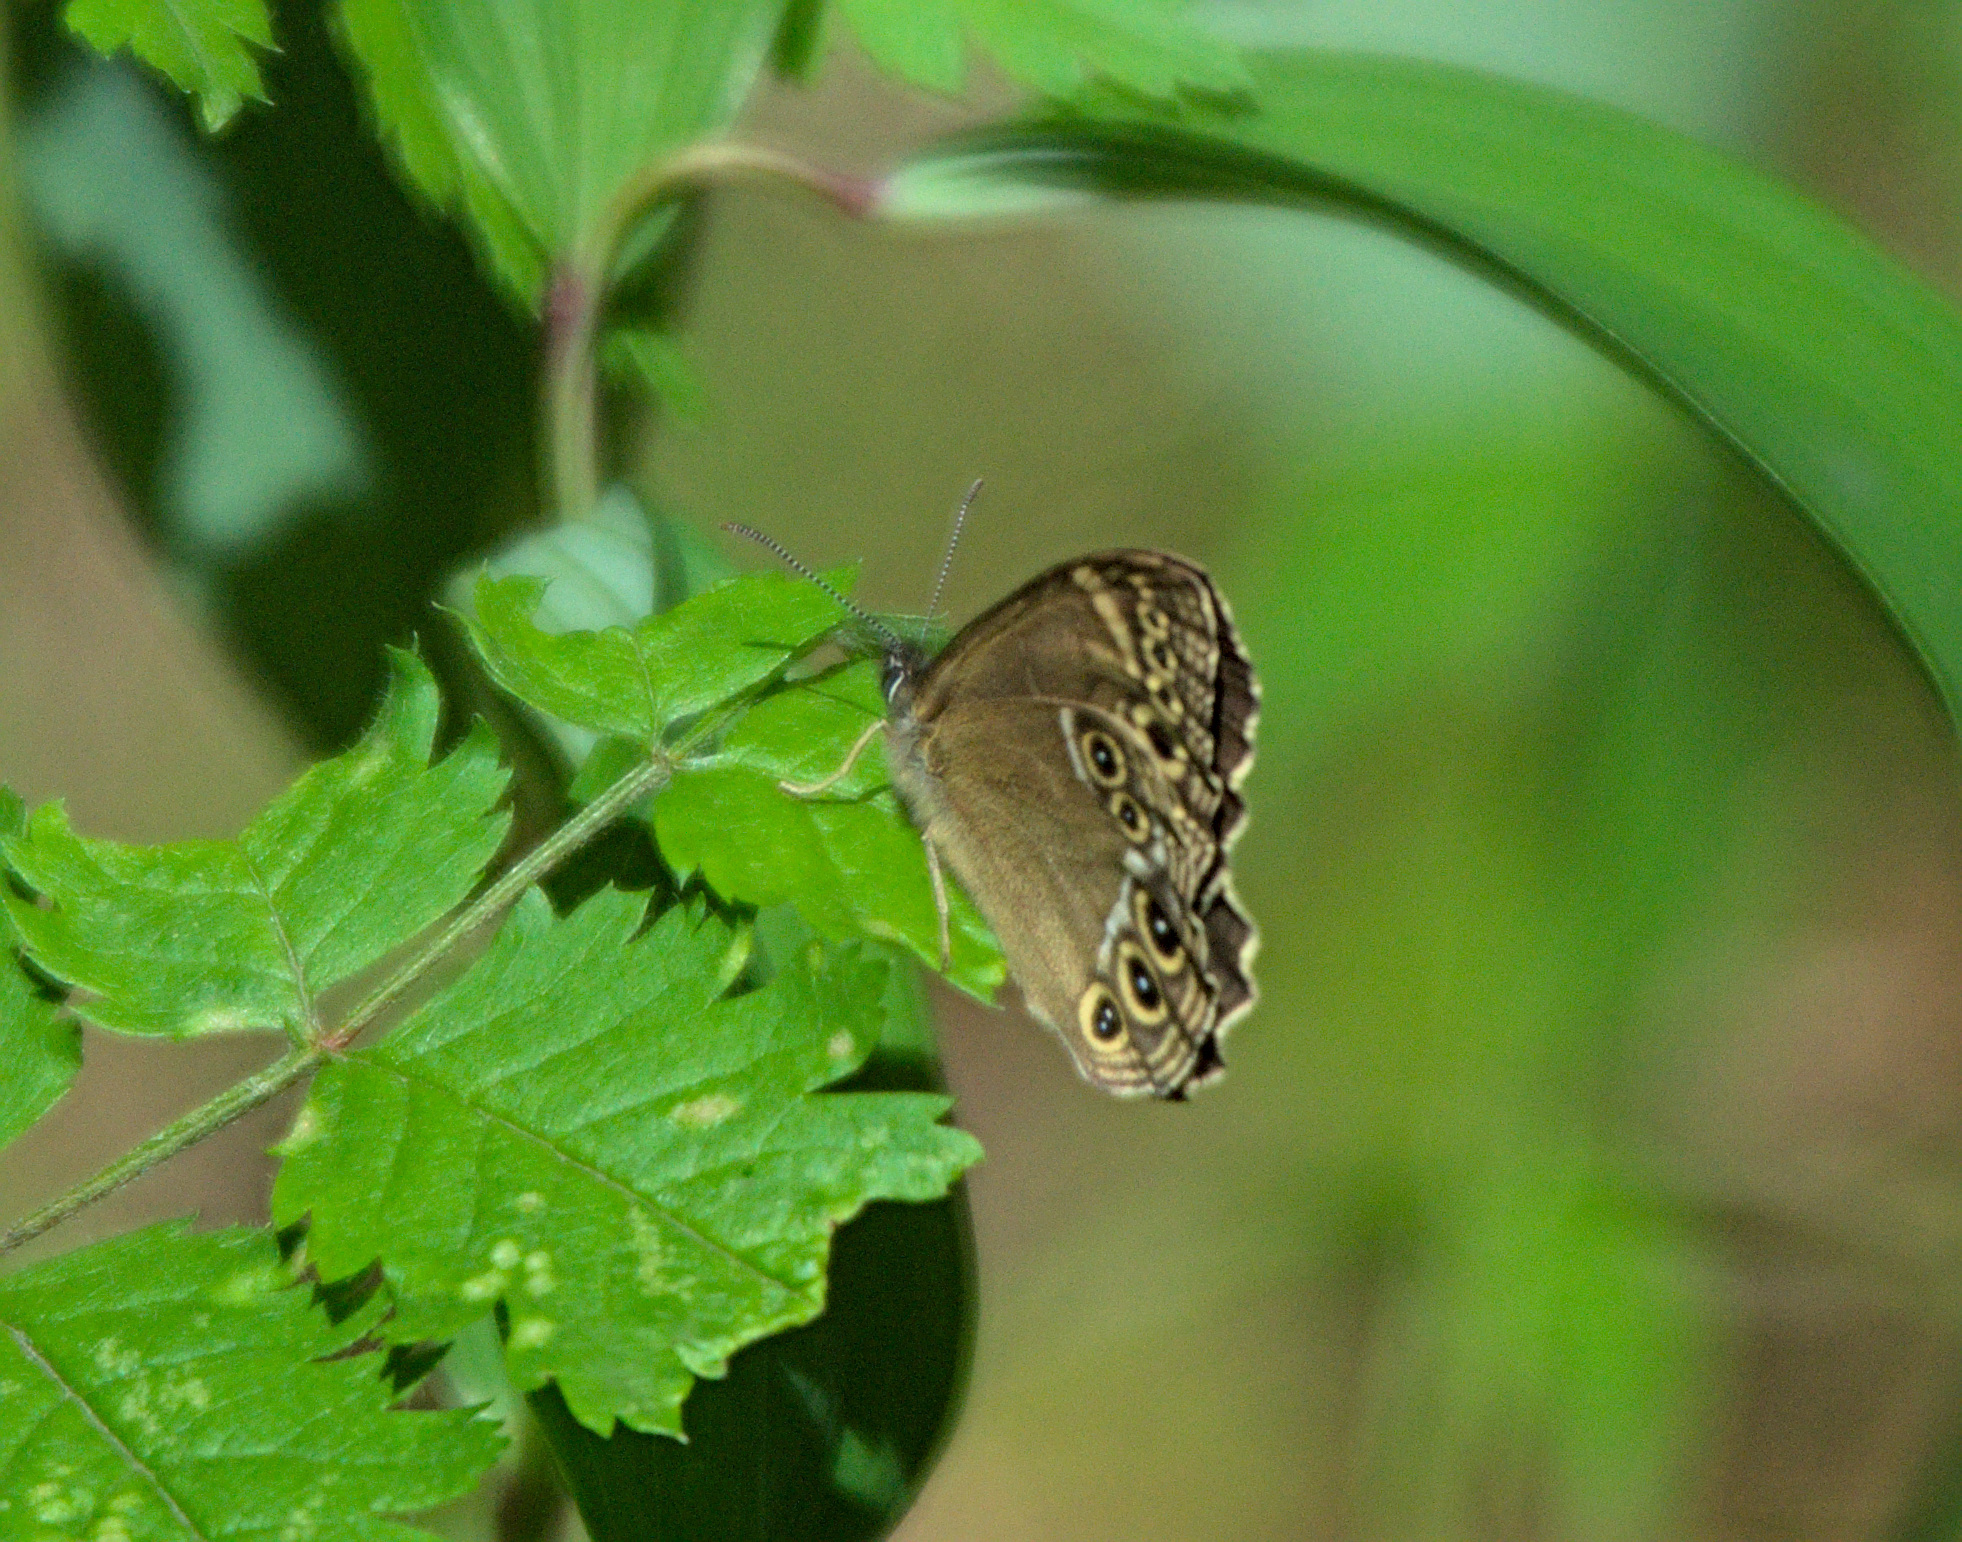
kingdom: Animalia
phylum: Arthropoda
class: Insecta
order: Lepidoptera
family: Nymphalidae
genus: Pararge
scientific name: Pararge Lopinga achine
